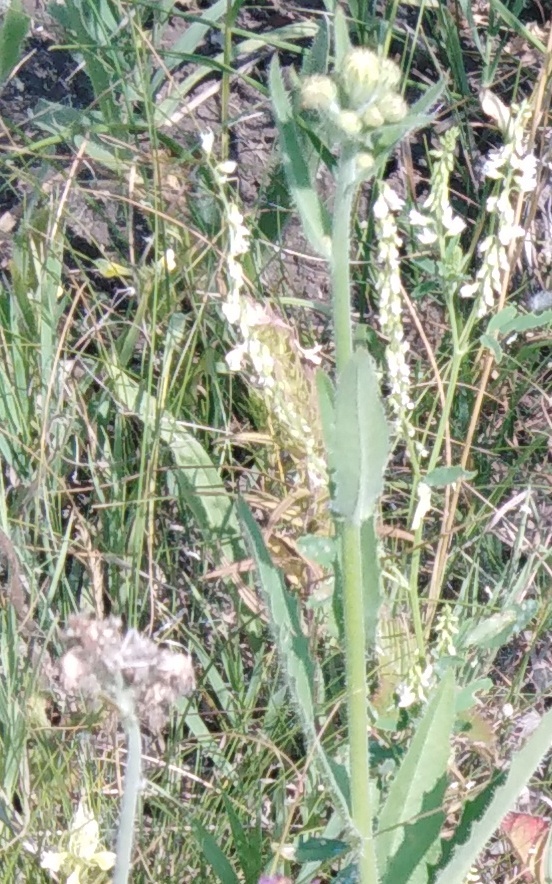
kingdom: Plantae
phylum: Tracheophyta
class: Magnoliopsida
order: Asterales
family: Asteraceae
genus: Picris
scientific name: Picris hieracioides
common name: Hawkweed oxtongue
